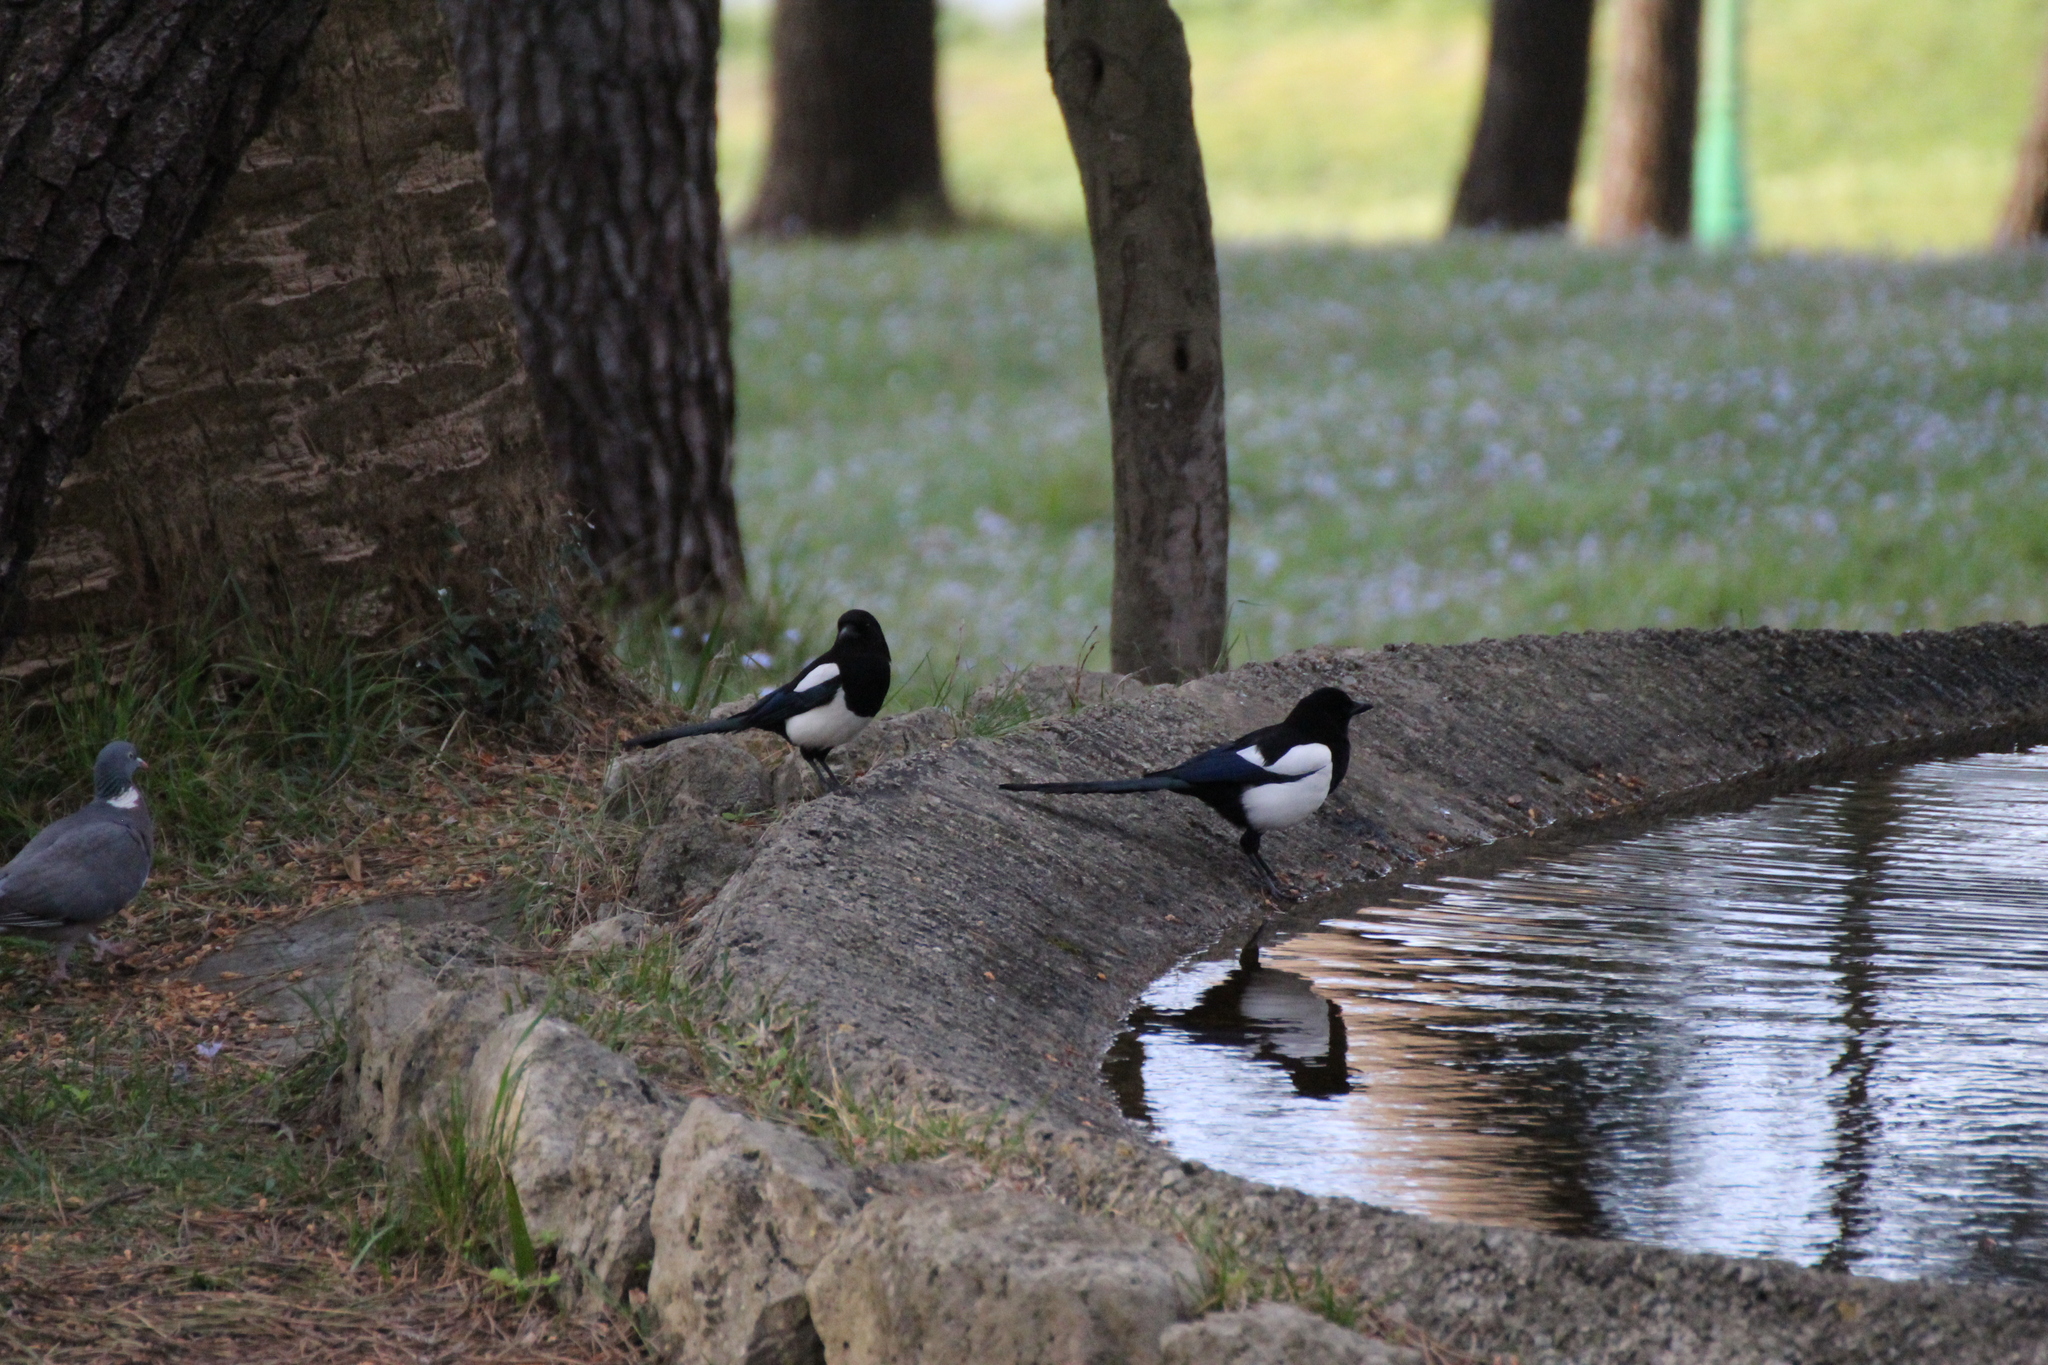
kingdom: Animalia
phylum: Chordata
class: Aves
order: Passeriformes
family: Corvidae
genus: Pica
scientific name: Pica pica
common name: Eurasian magpie
